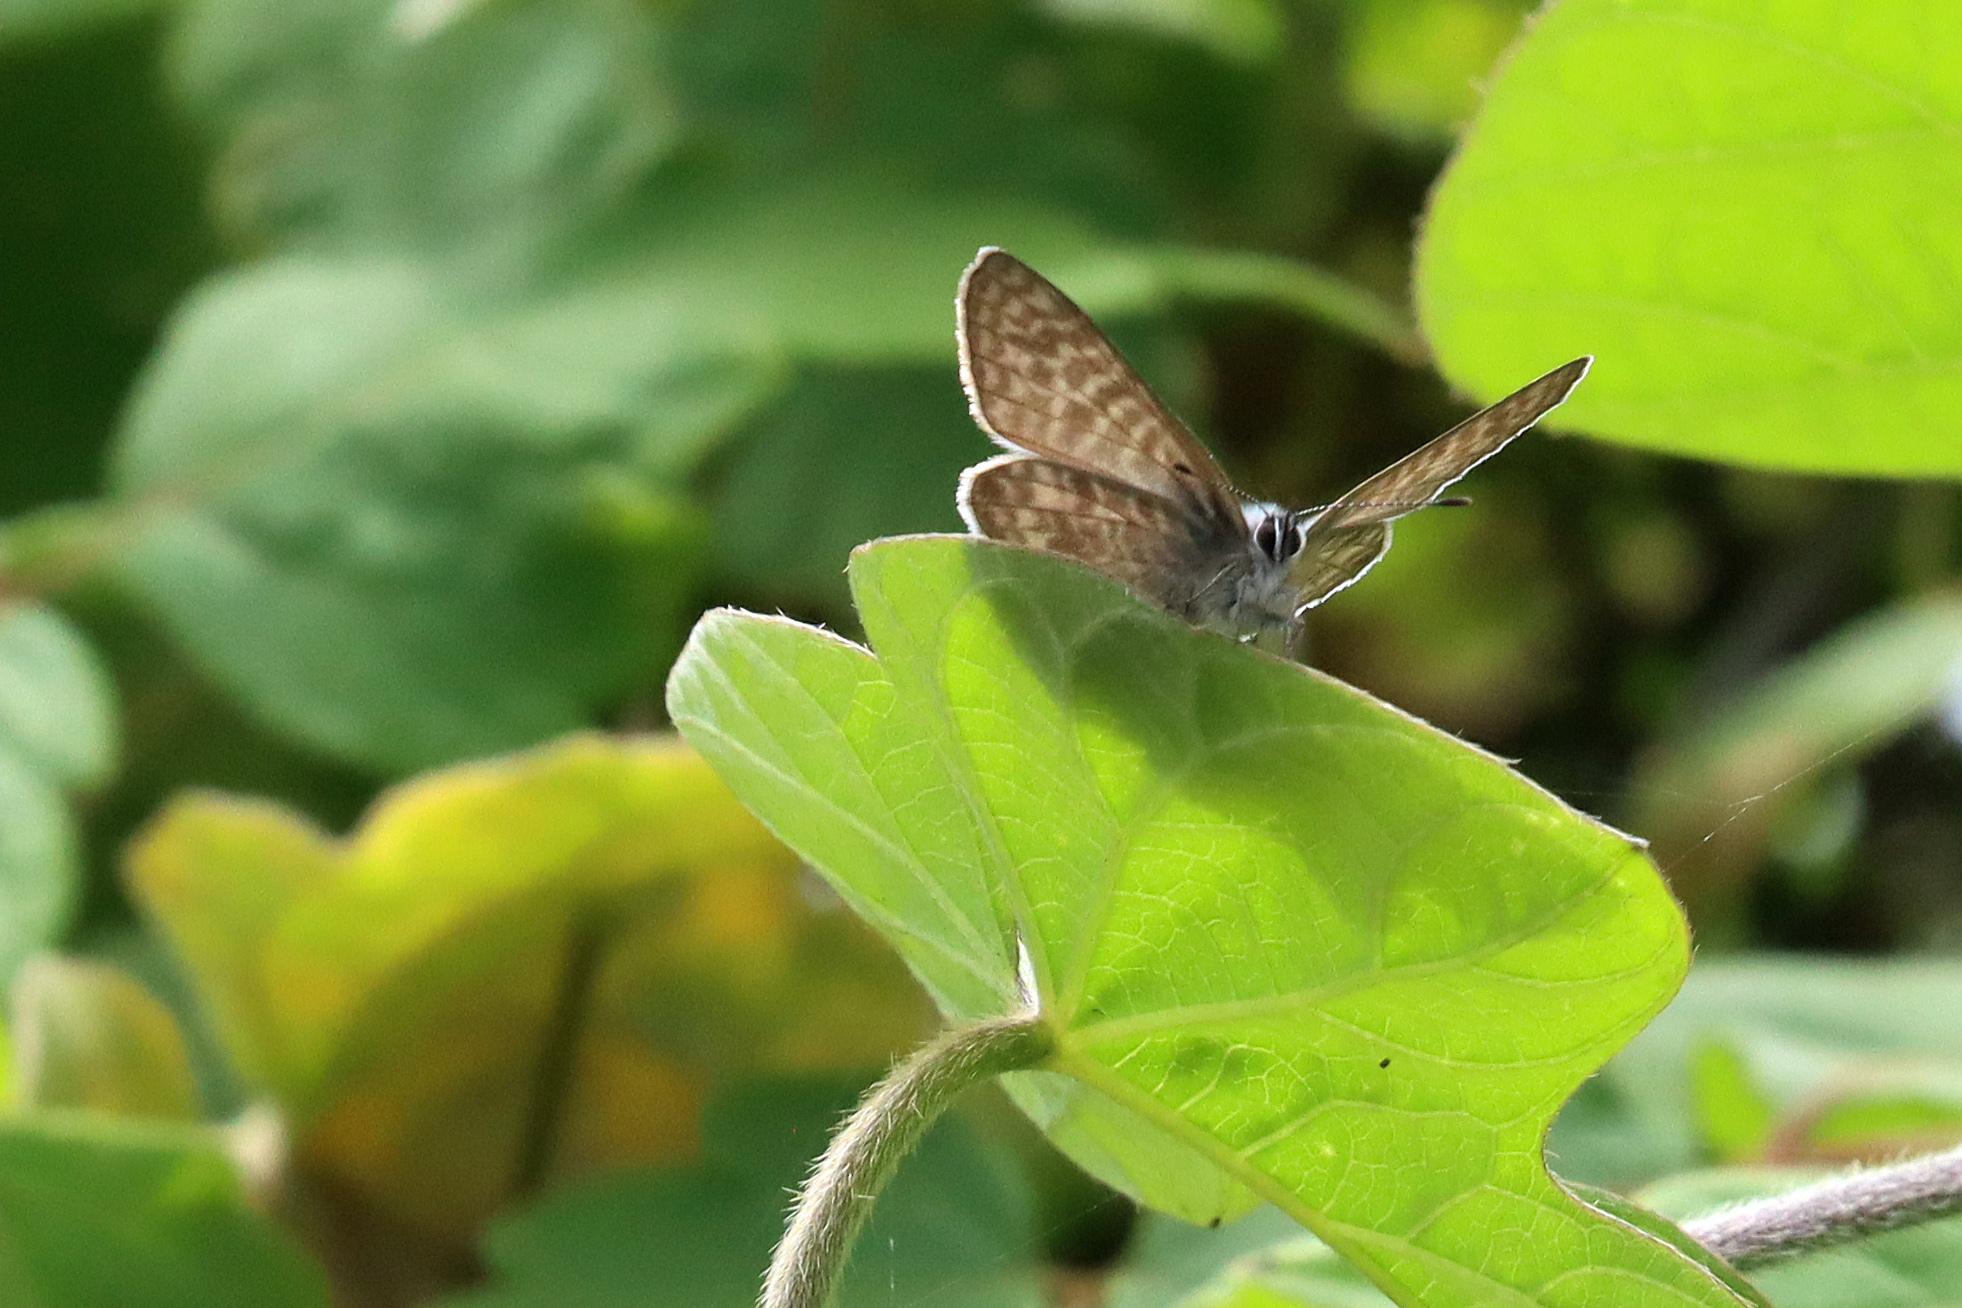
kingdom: Animalia
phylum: Arthropoda
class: Insecta
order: Lepidoptera
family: Lycaenidae
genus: Leptotes
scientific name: Leptotes pirithous
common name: Lang's short-tailed blue
